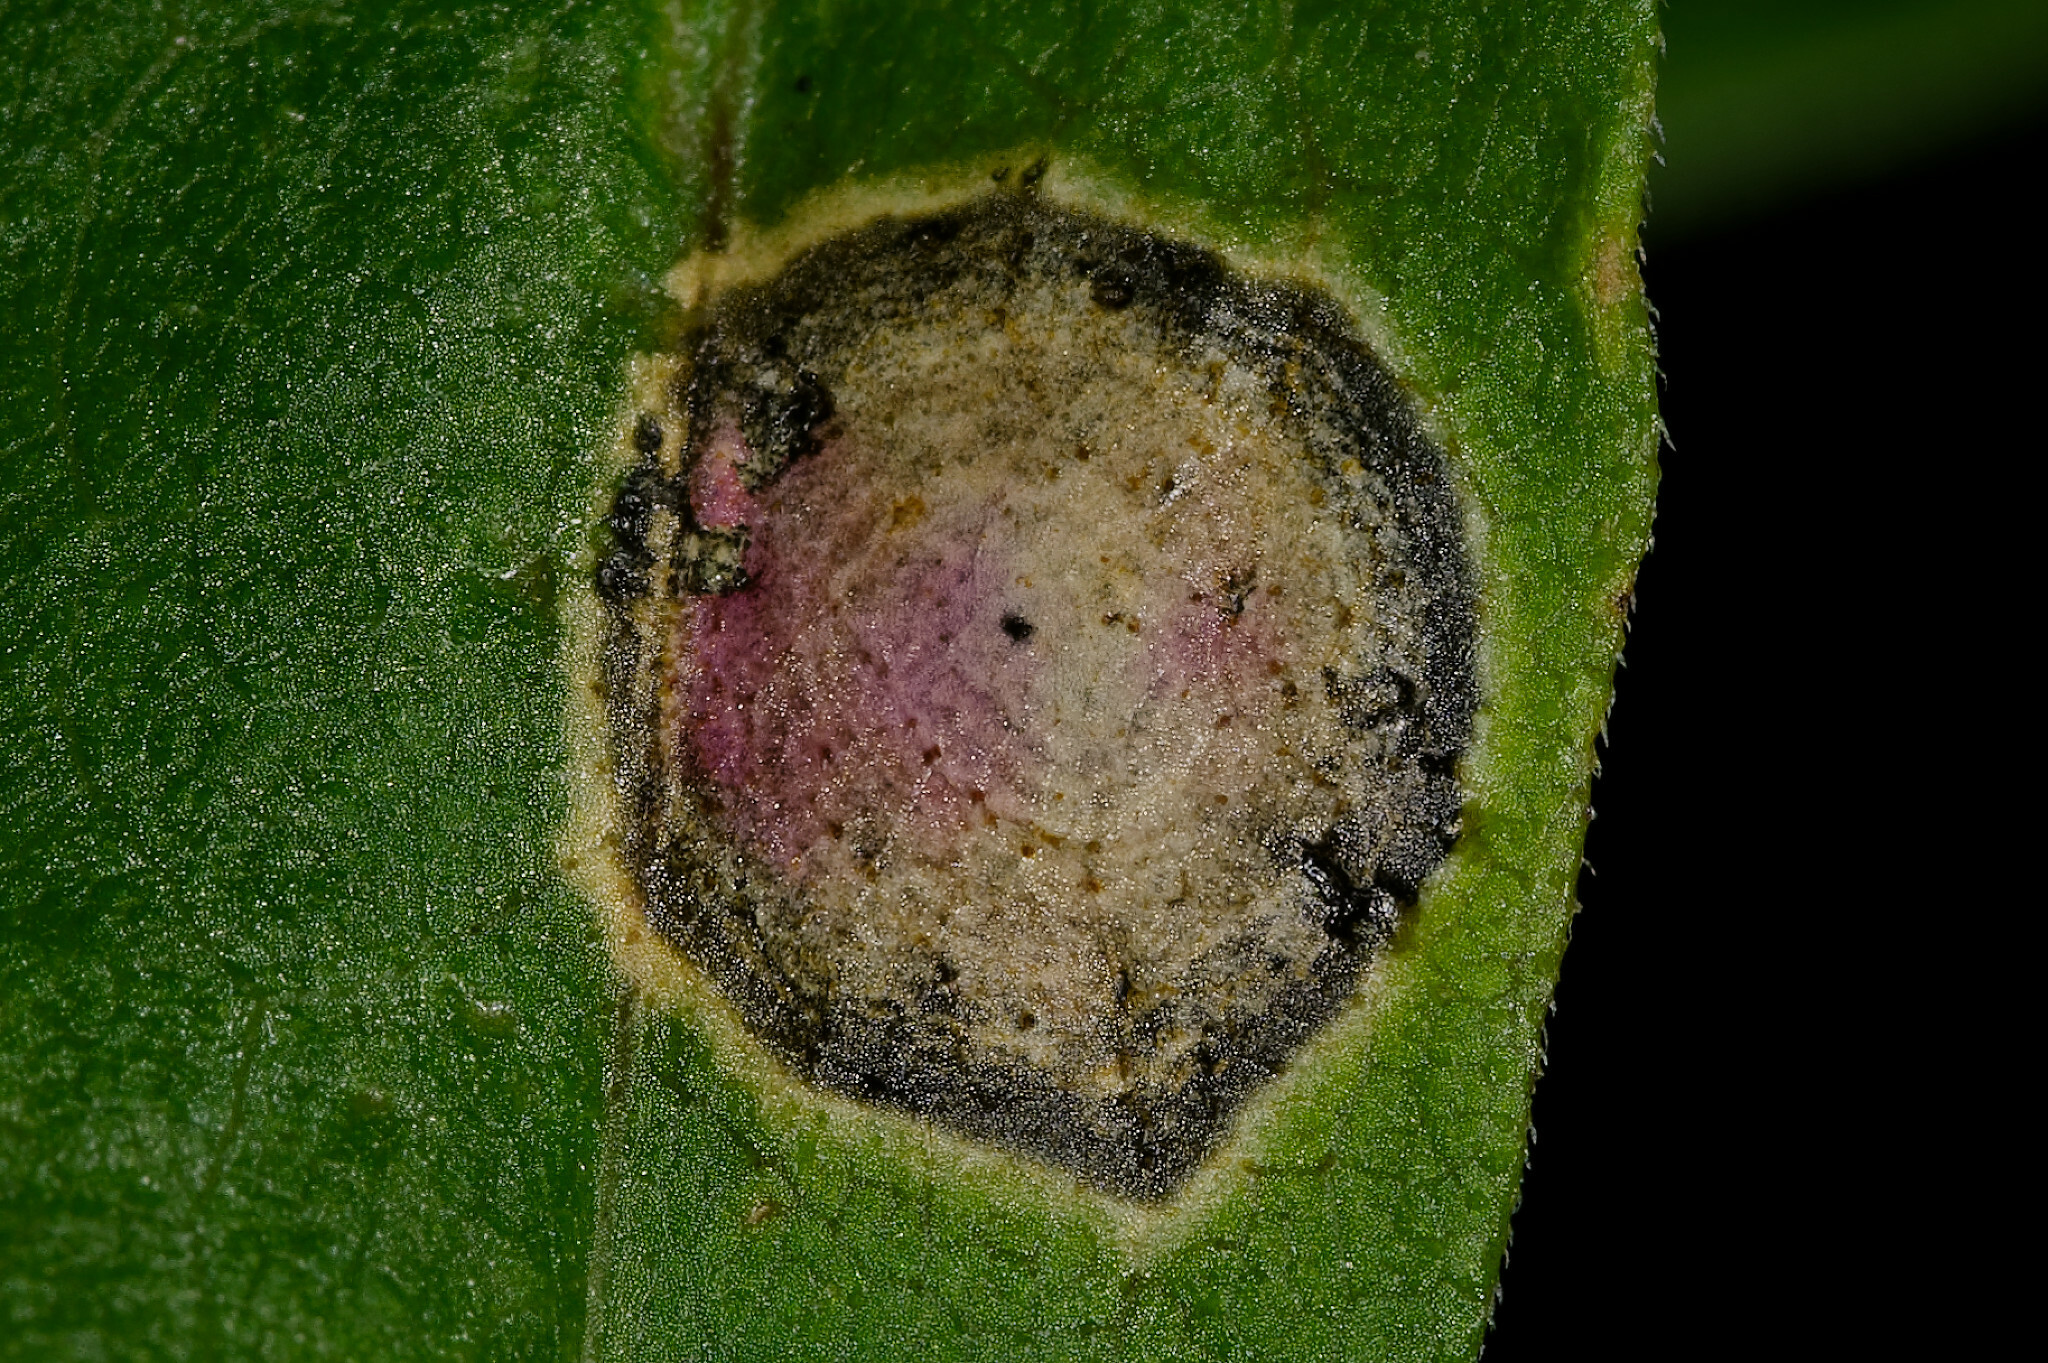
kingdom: Animalia
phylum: Arthropoda
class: Insecta
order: Diptera
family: Cecidomyiidae
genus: Asteromyia
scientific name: Asteromyia carbonifera
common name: Carbonifera goldenrod gall midge
